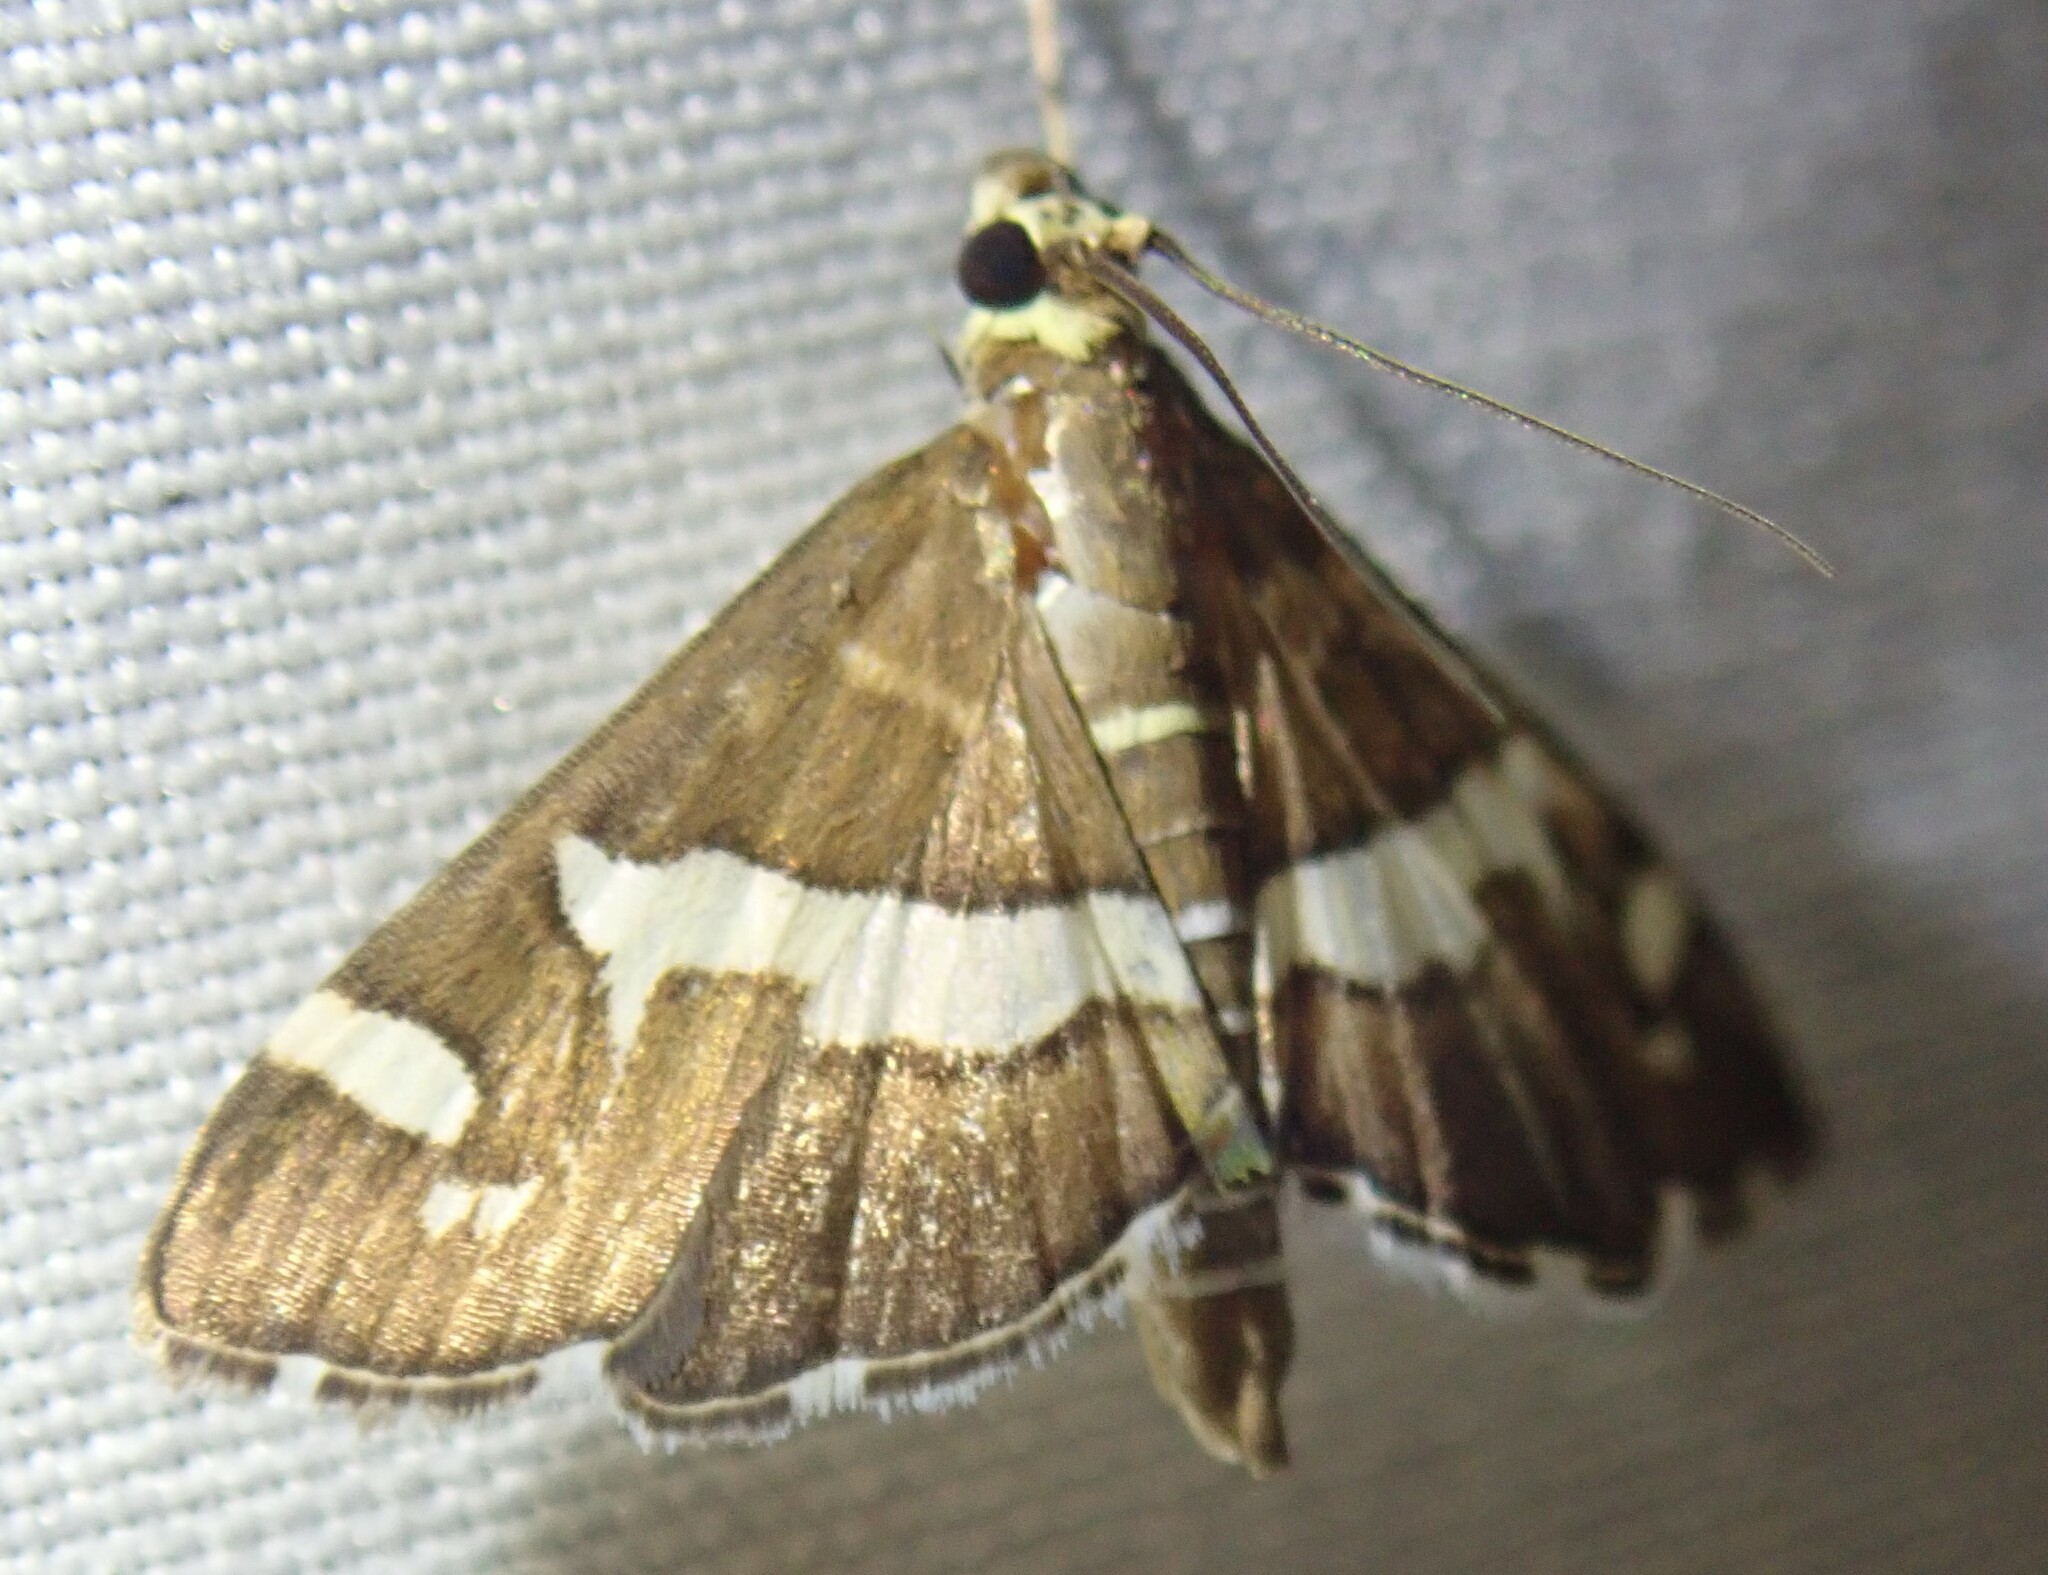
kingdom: Animalia
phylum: Arthropoda
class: Insecta
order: Lepidoptera
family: Crambidae
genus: Spoladea
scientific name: Spoladea recurvalis
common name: Beet webworm moth
